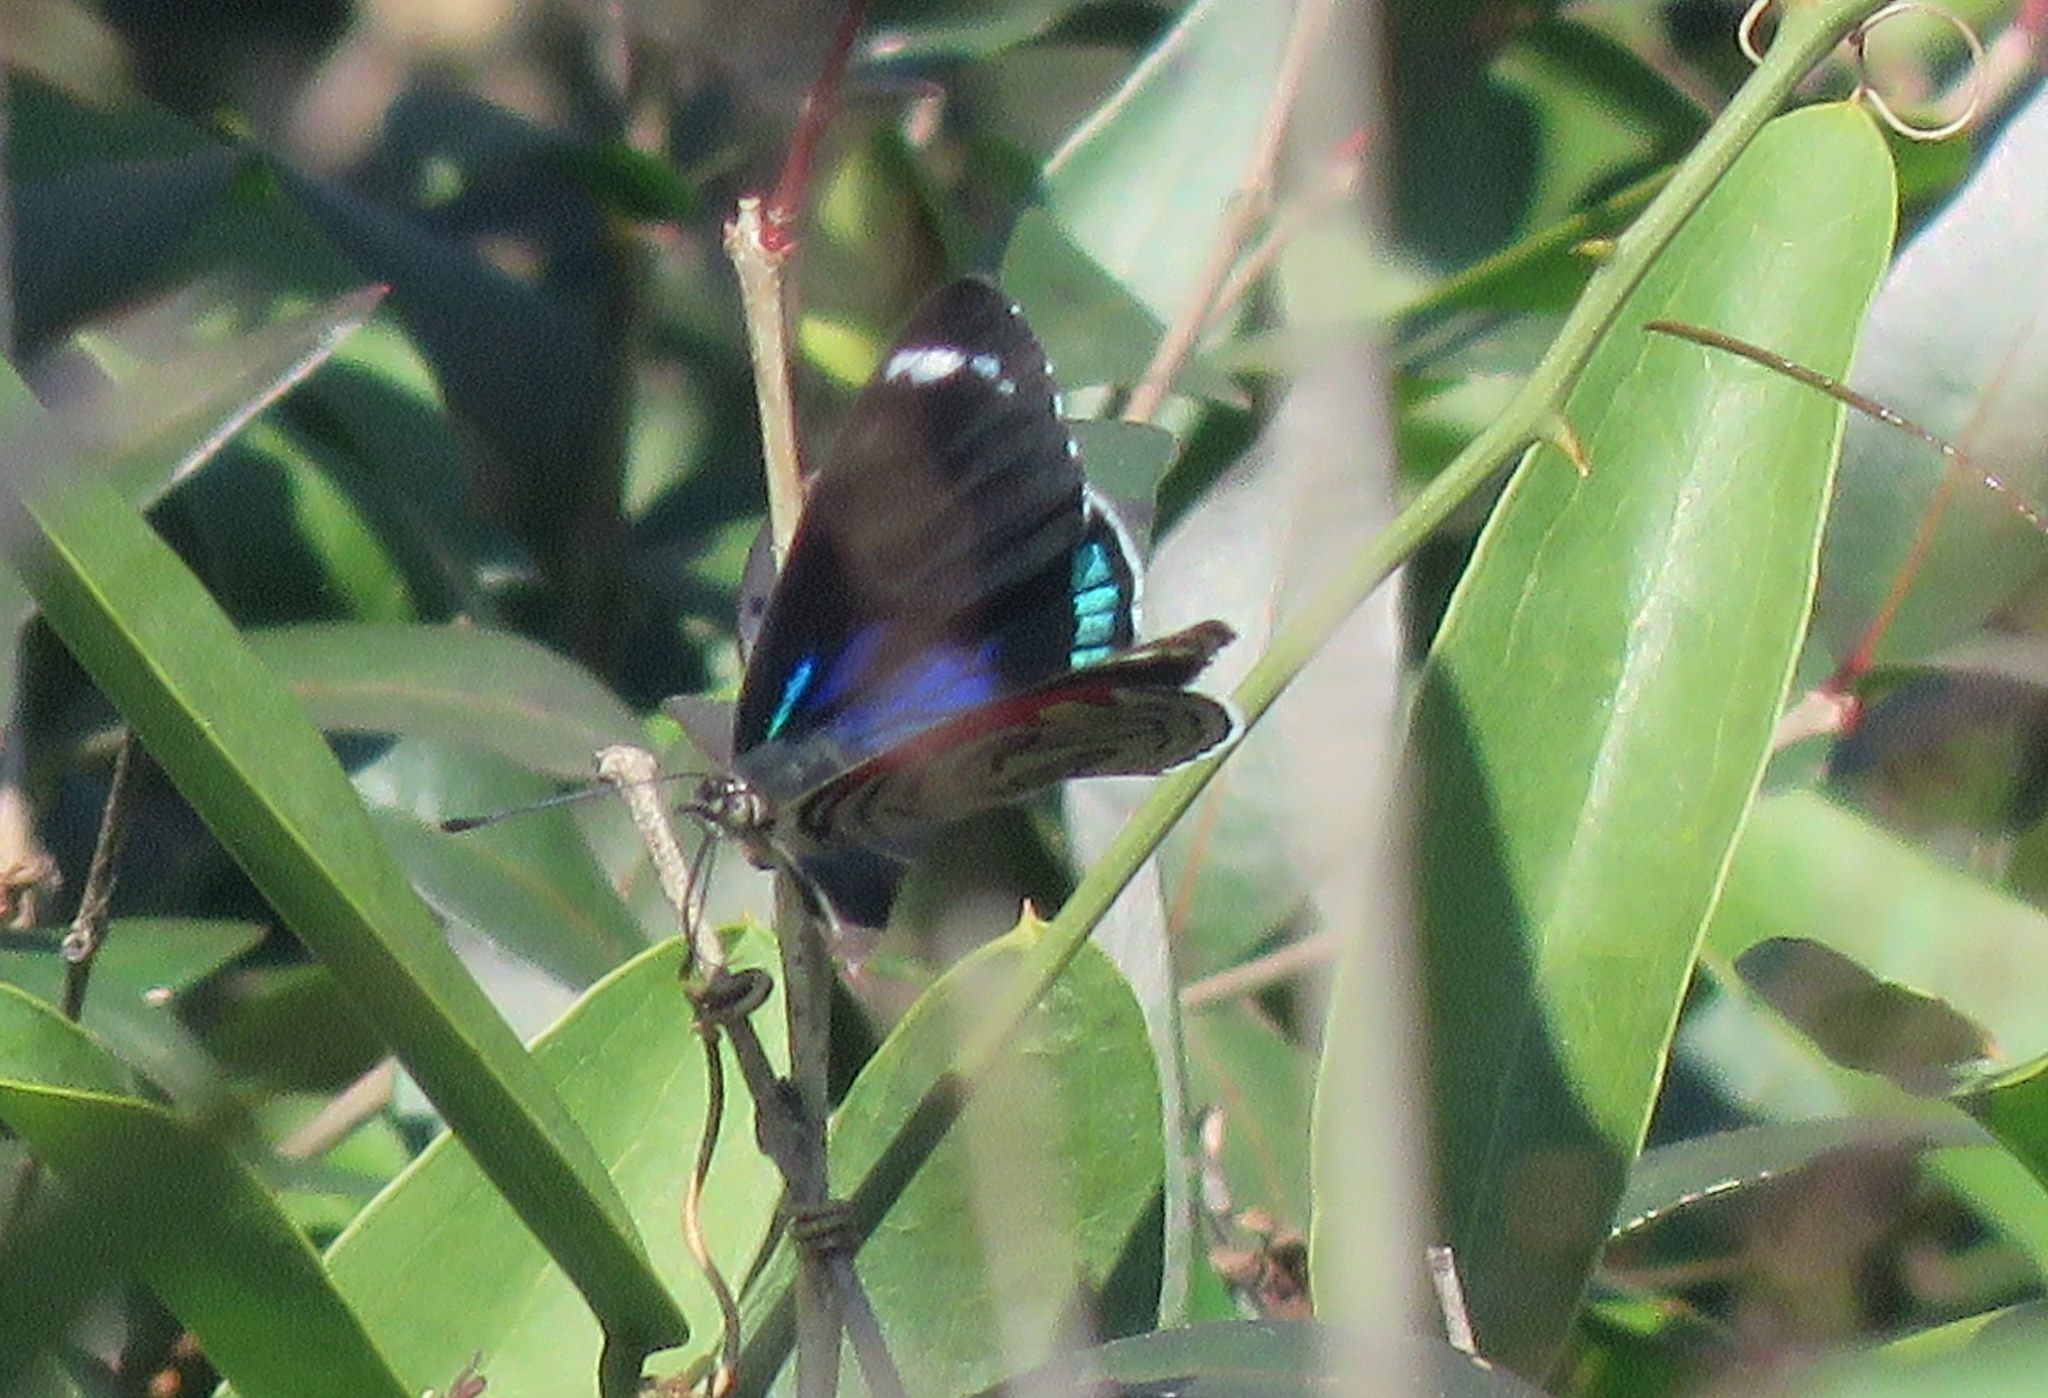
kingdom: Animalia
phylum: Arthropoda
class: Insecta
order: Lepidoptera
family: Nymphalidae
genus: Diaethria
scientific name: Diaethria candrena
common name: Number eighty
